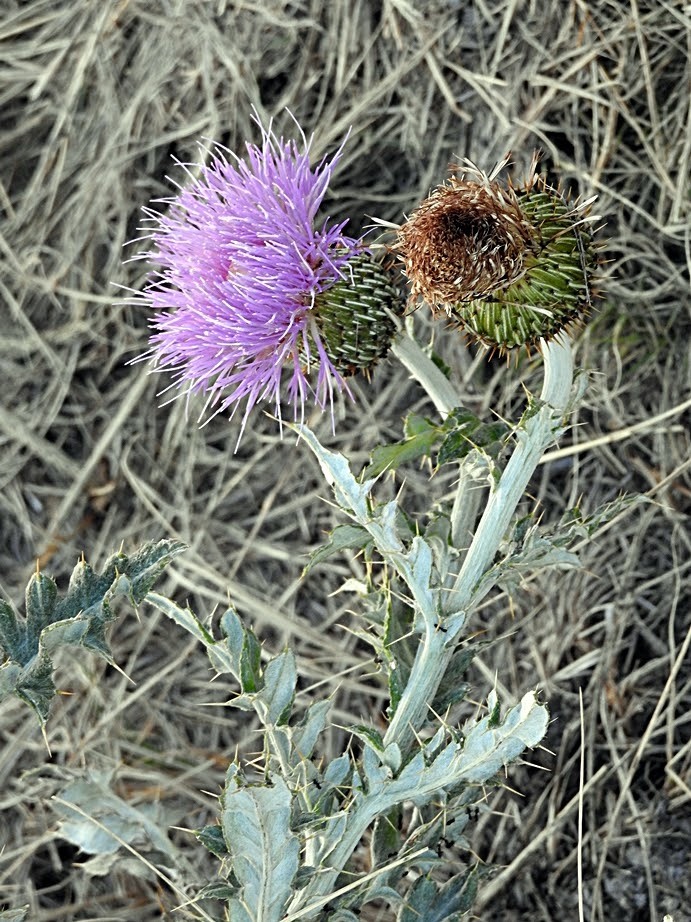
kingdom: Plantae
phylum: Tracheophyta
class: Magnoliopsida
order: Asterales
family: Asteraceae
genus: Cirsium
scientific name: Cirsium undulatum
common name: Pasture thistle
